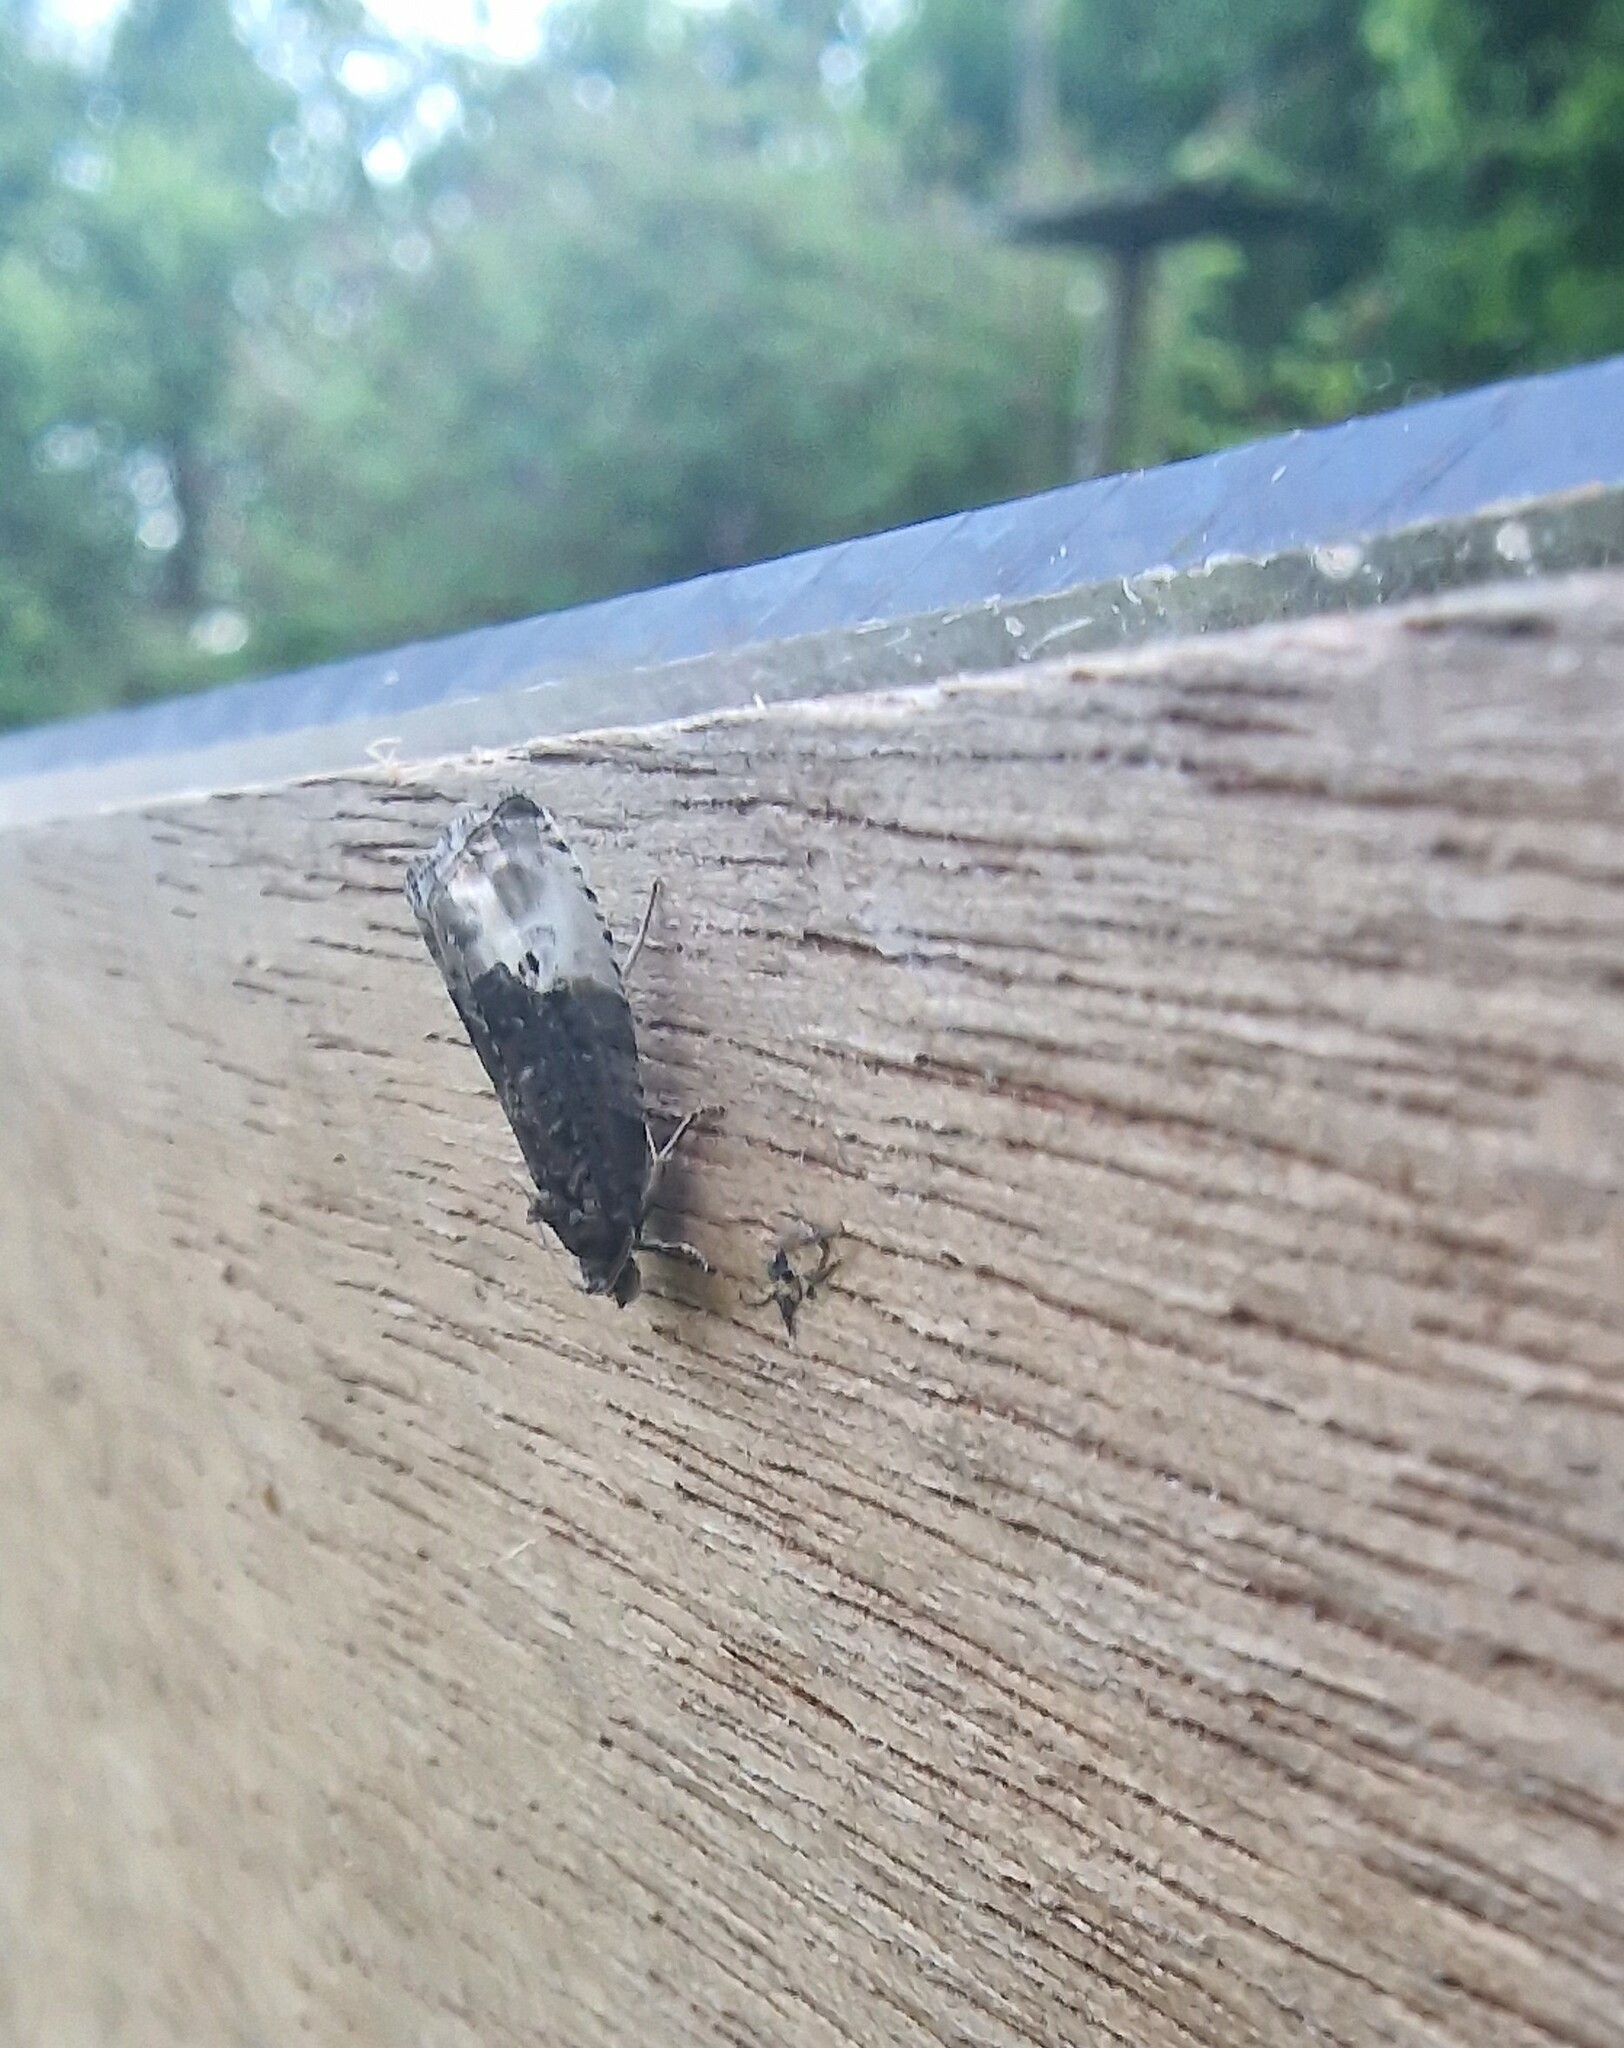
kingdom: Animalia
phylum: Arthropoda
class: Insecta
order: Lepidoptera
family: Tortricidae
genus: Hedya
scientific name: Hedya nubiferana
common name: Marbled orchard tortrix
